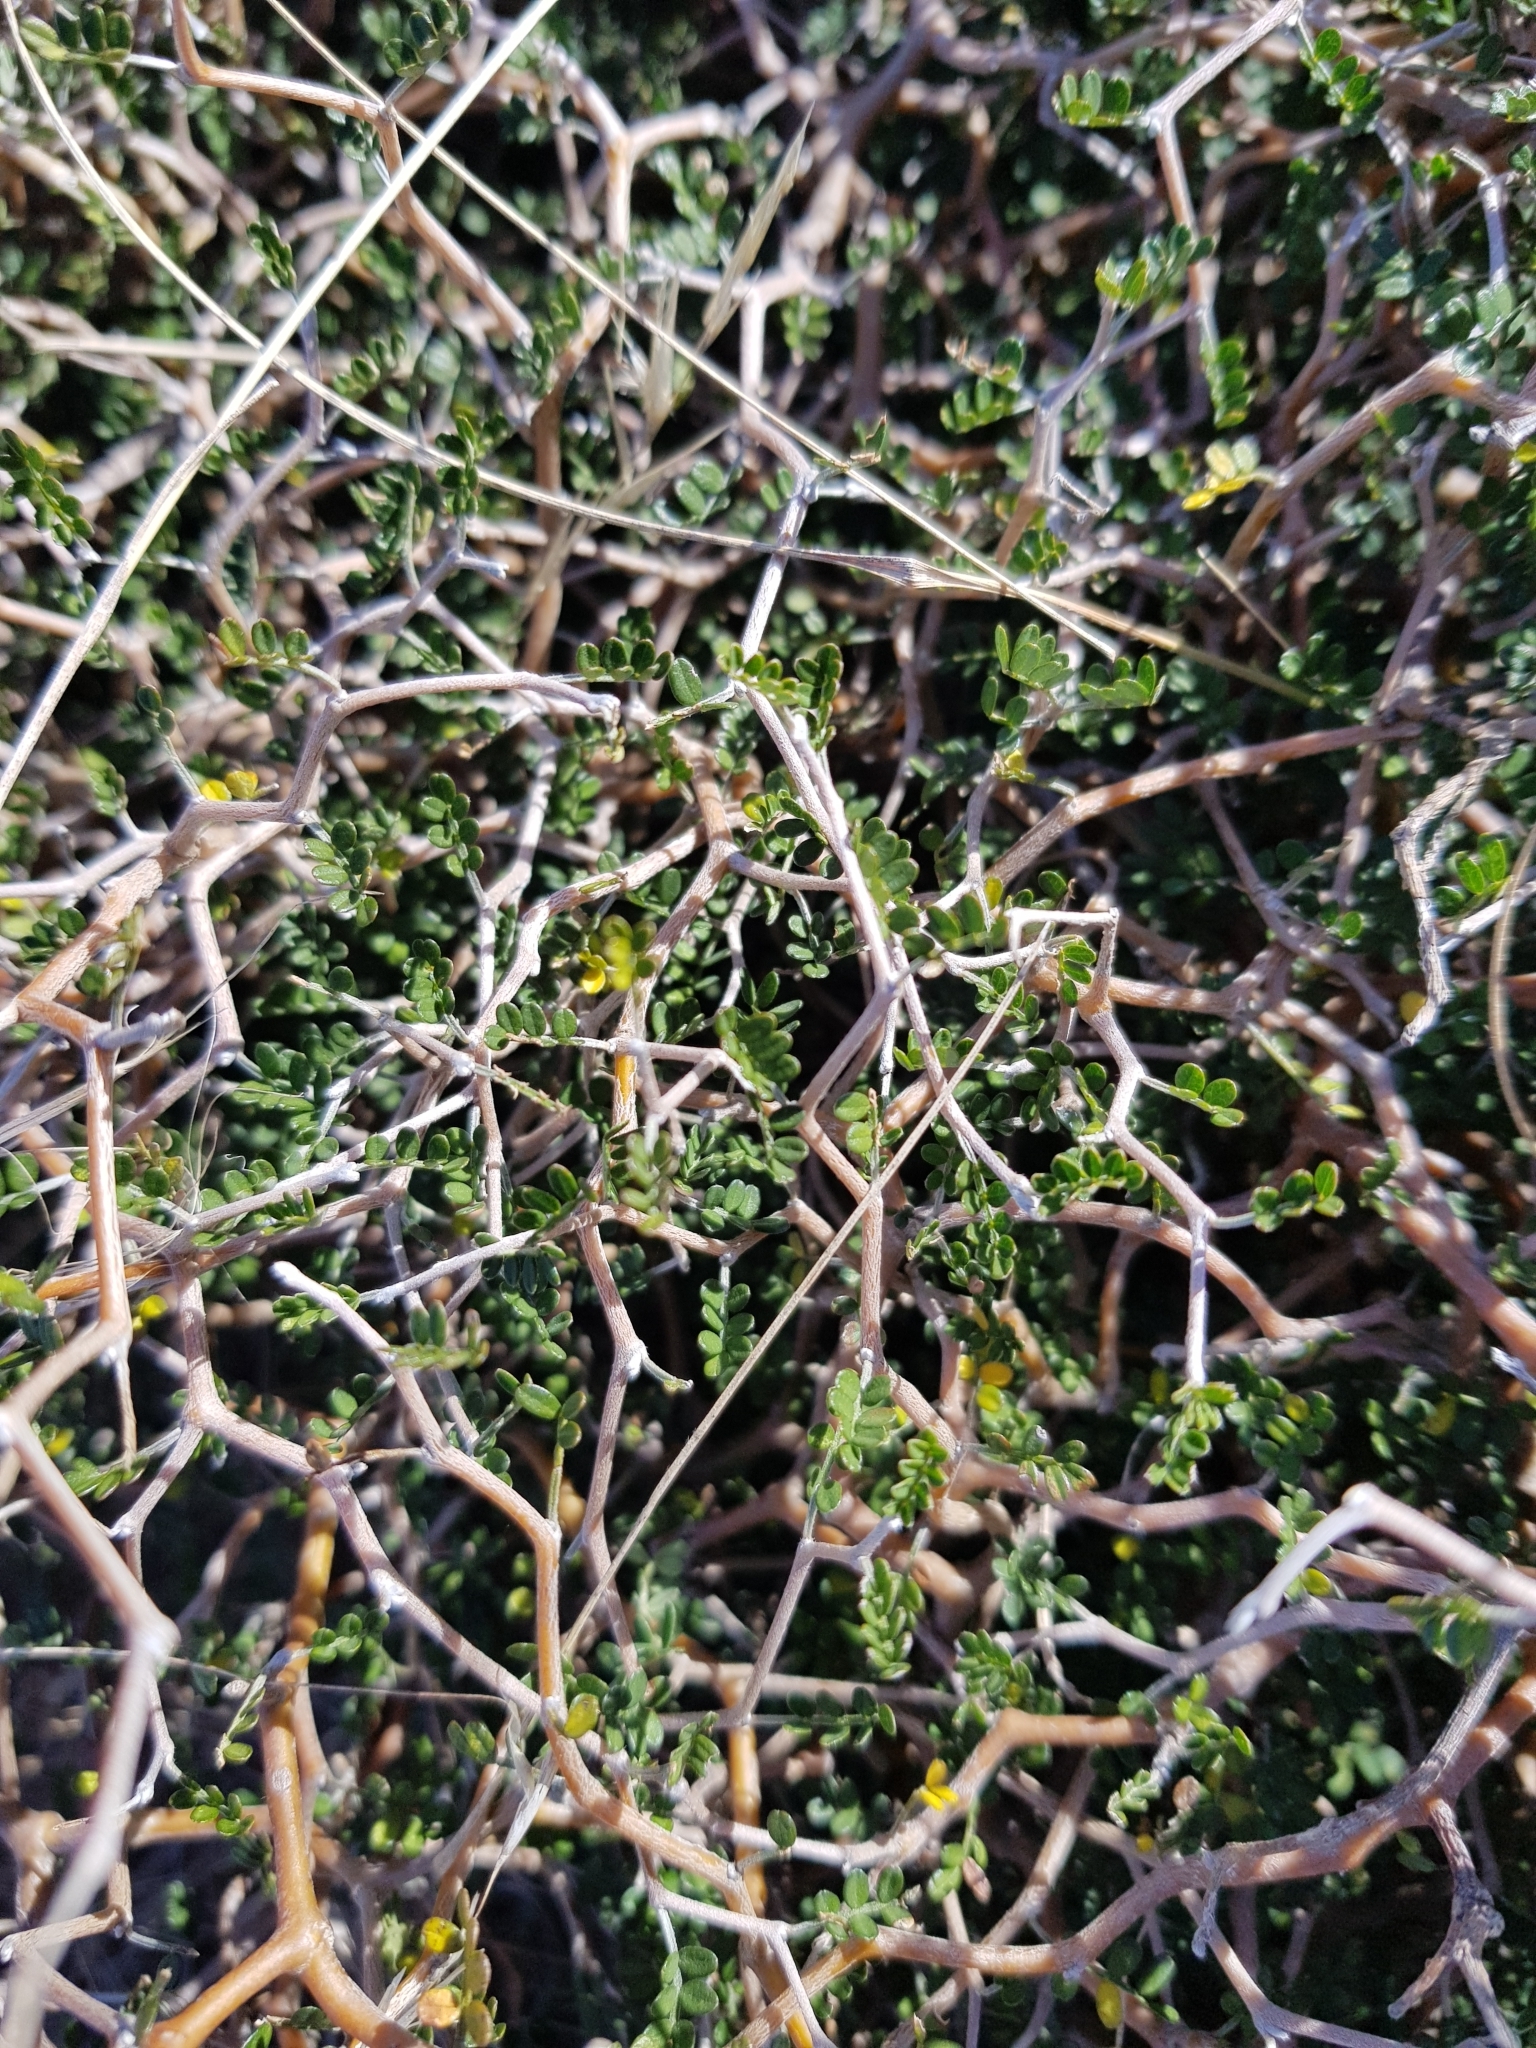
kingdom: Plantae
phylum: Tracheophyta
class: Magnoliopsida
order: Fabales
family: Fabaceae
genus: Sophora
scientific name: Sophora prostrata
